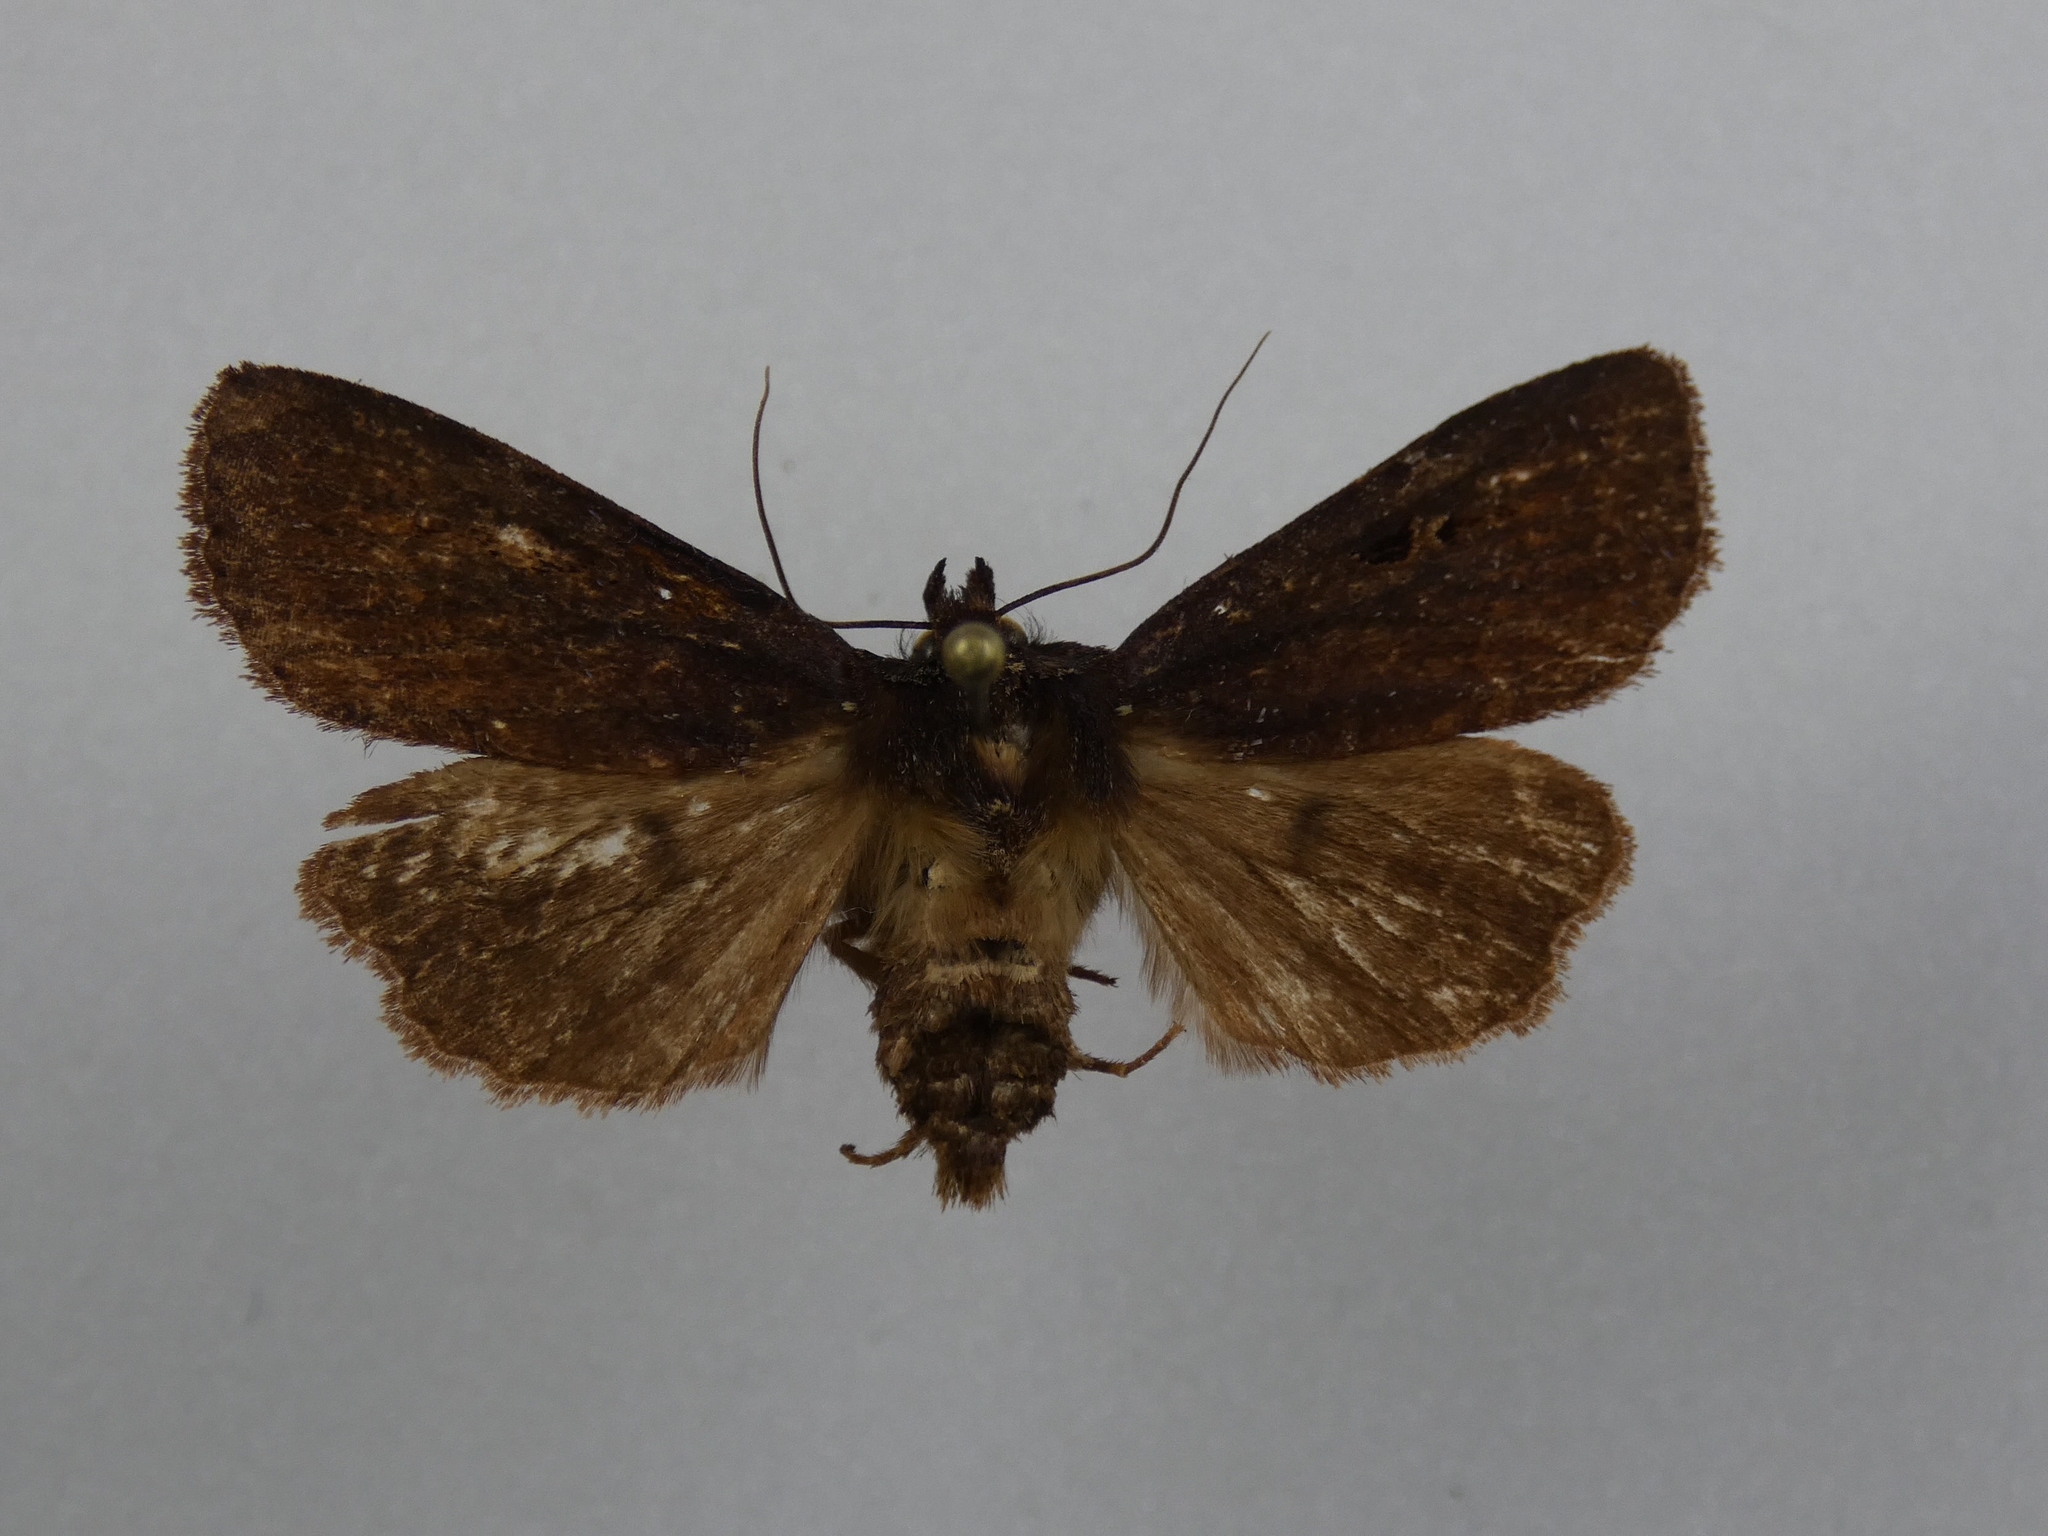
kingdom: Animalia
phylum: Arthropoda
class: Insecta
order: Lepidoptera
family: Noctuidae
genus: Austramathes
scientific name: Austramathes purpurea
